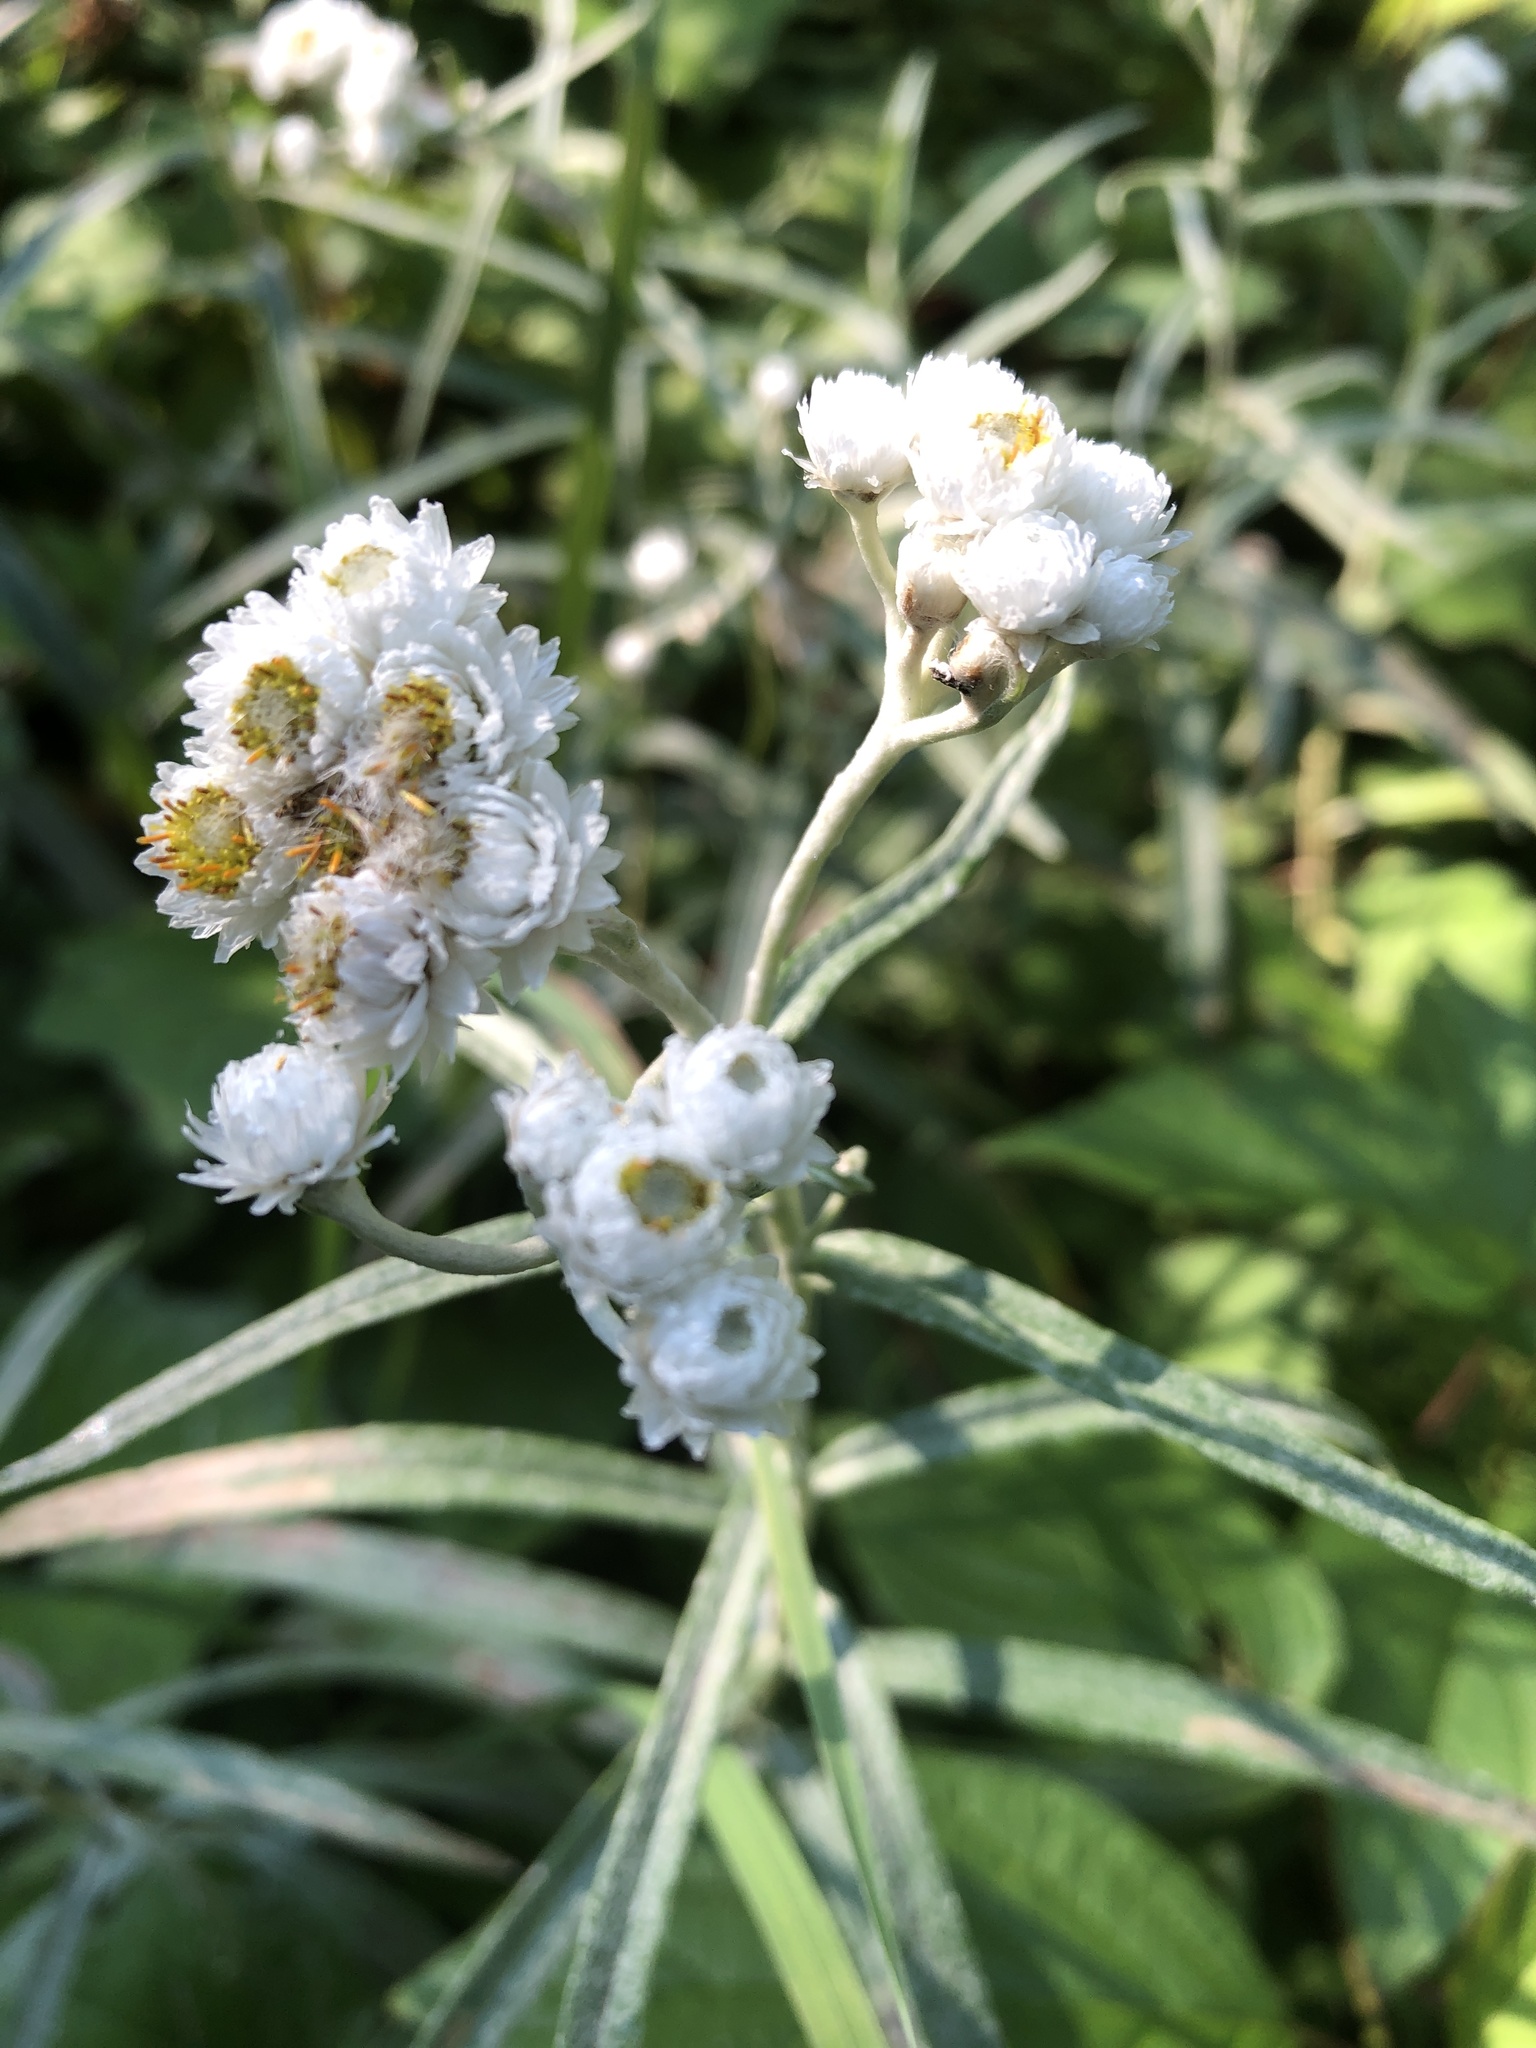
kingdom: Plantae
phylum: Tracheophyta
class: Magnoliopsida
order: Asterales
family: Asteraceae
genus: Anaphalis
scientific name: Anaphalis margaritacea
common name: Pearly everlasting
